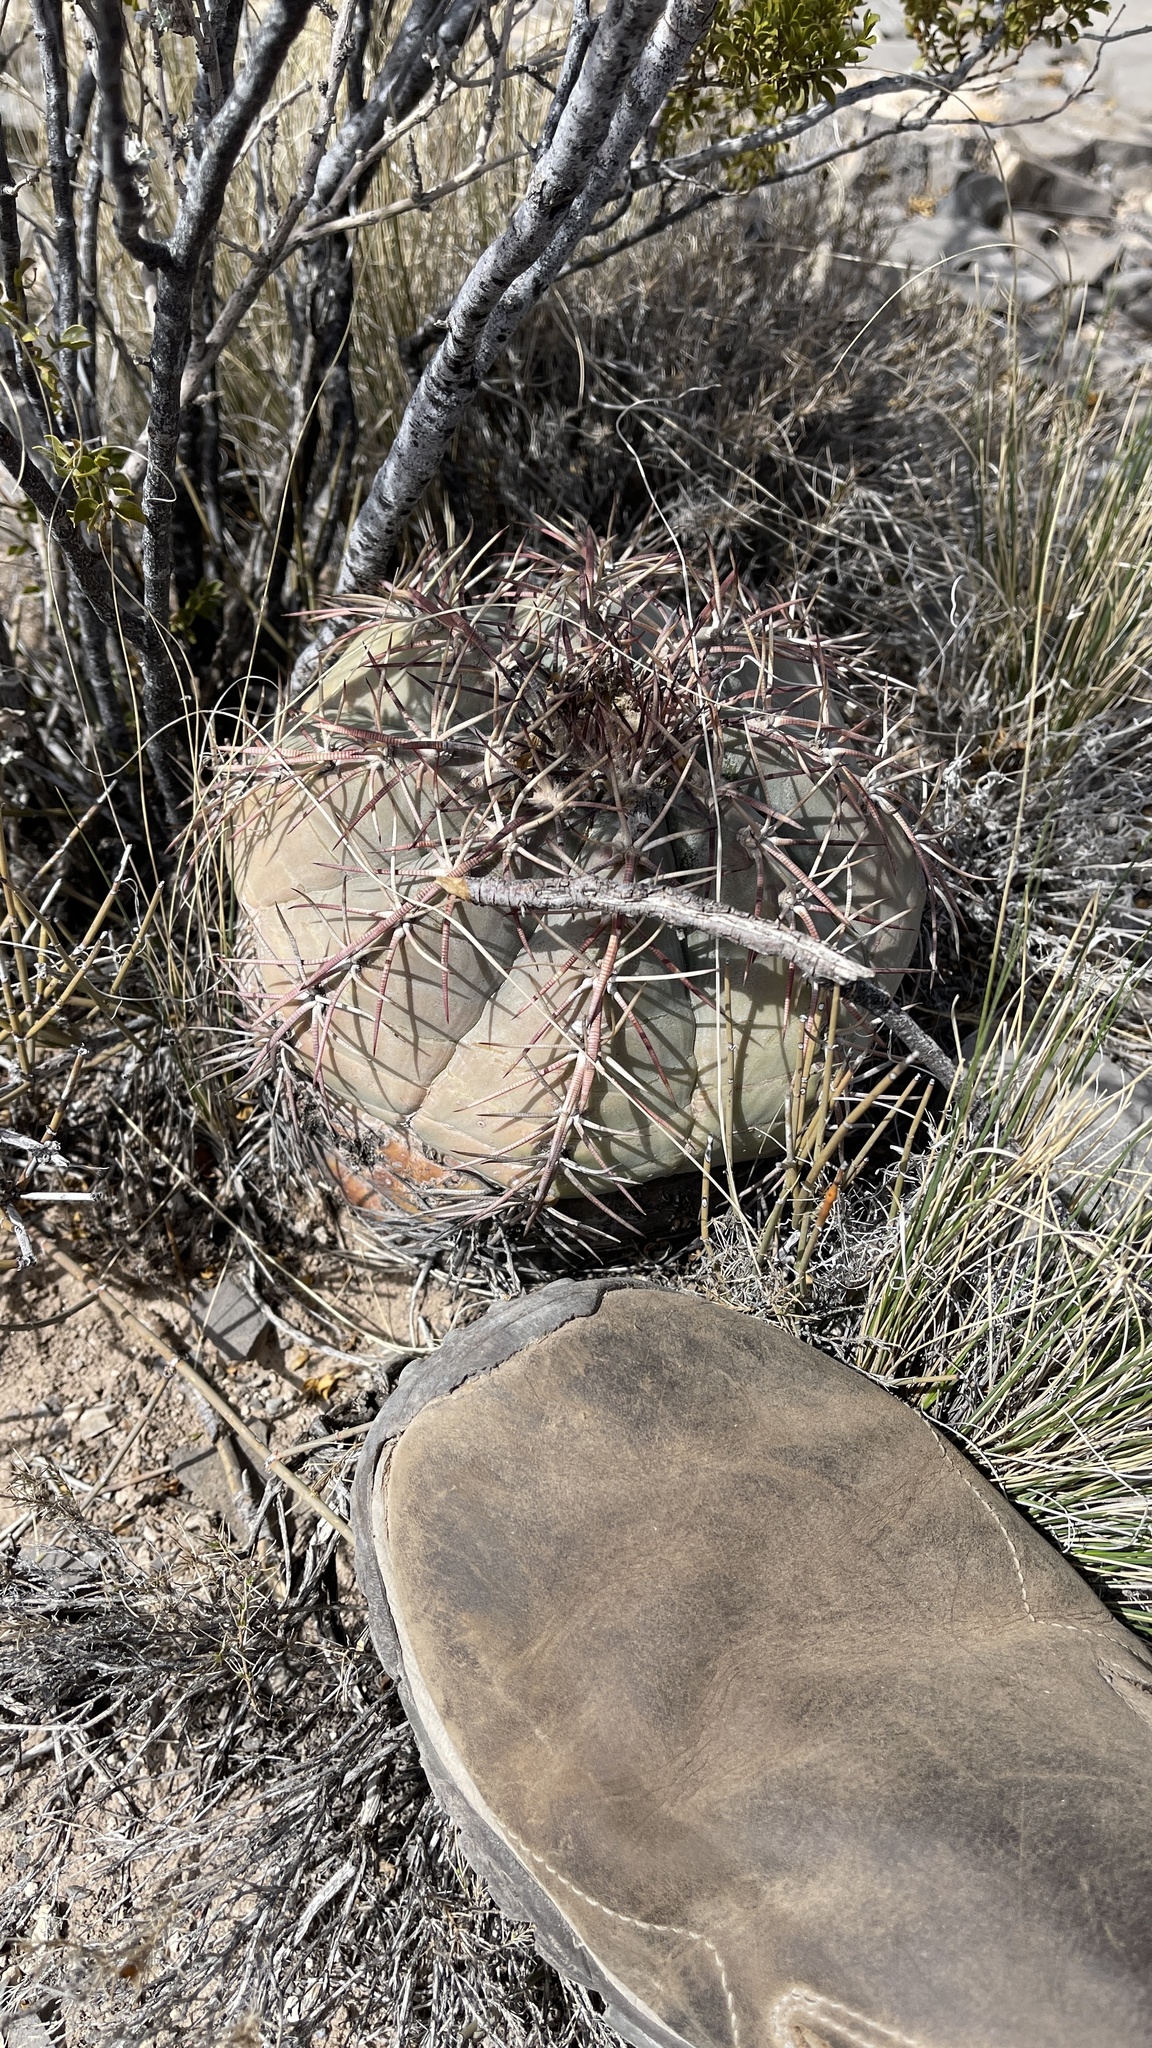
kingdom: Plantae
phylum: Tracheophyta
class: Magnoliopsida
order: Caryophyllales
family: Cactaceae
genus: Echinocactus
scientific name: Echinocactus horizonthalonius
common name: Devilshead
